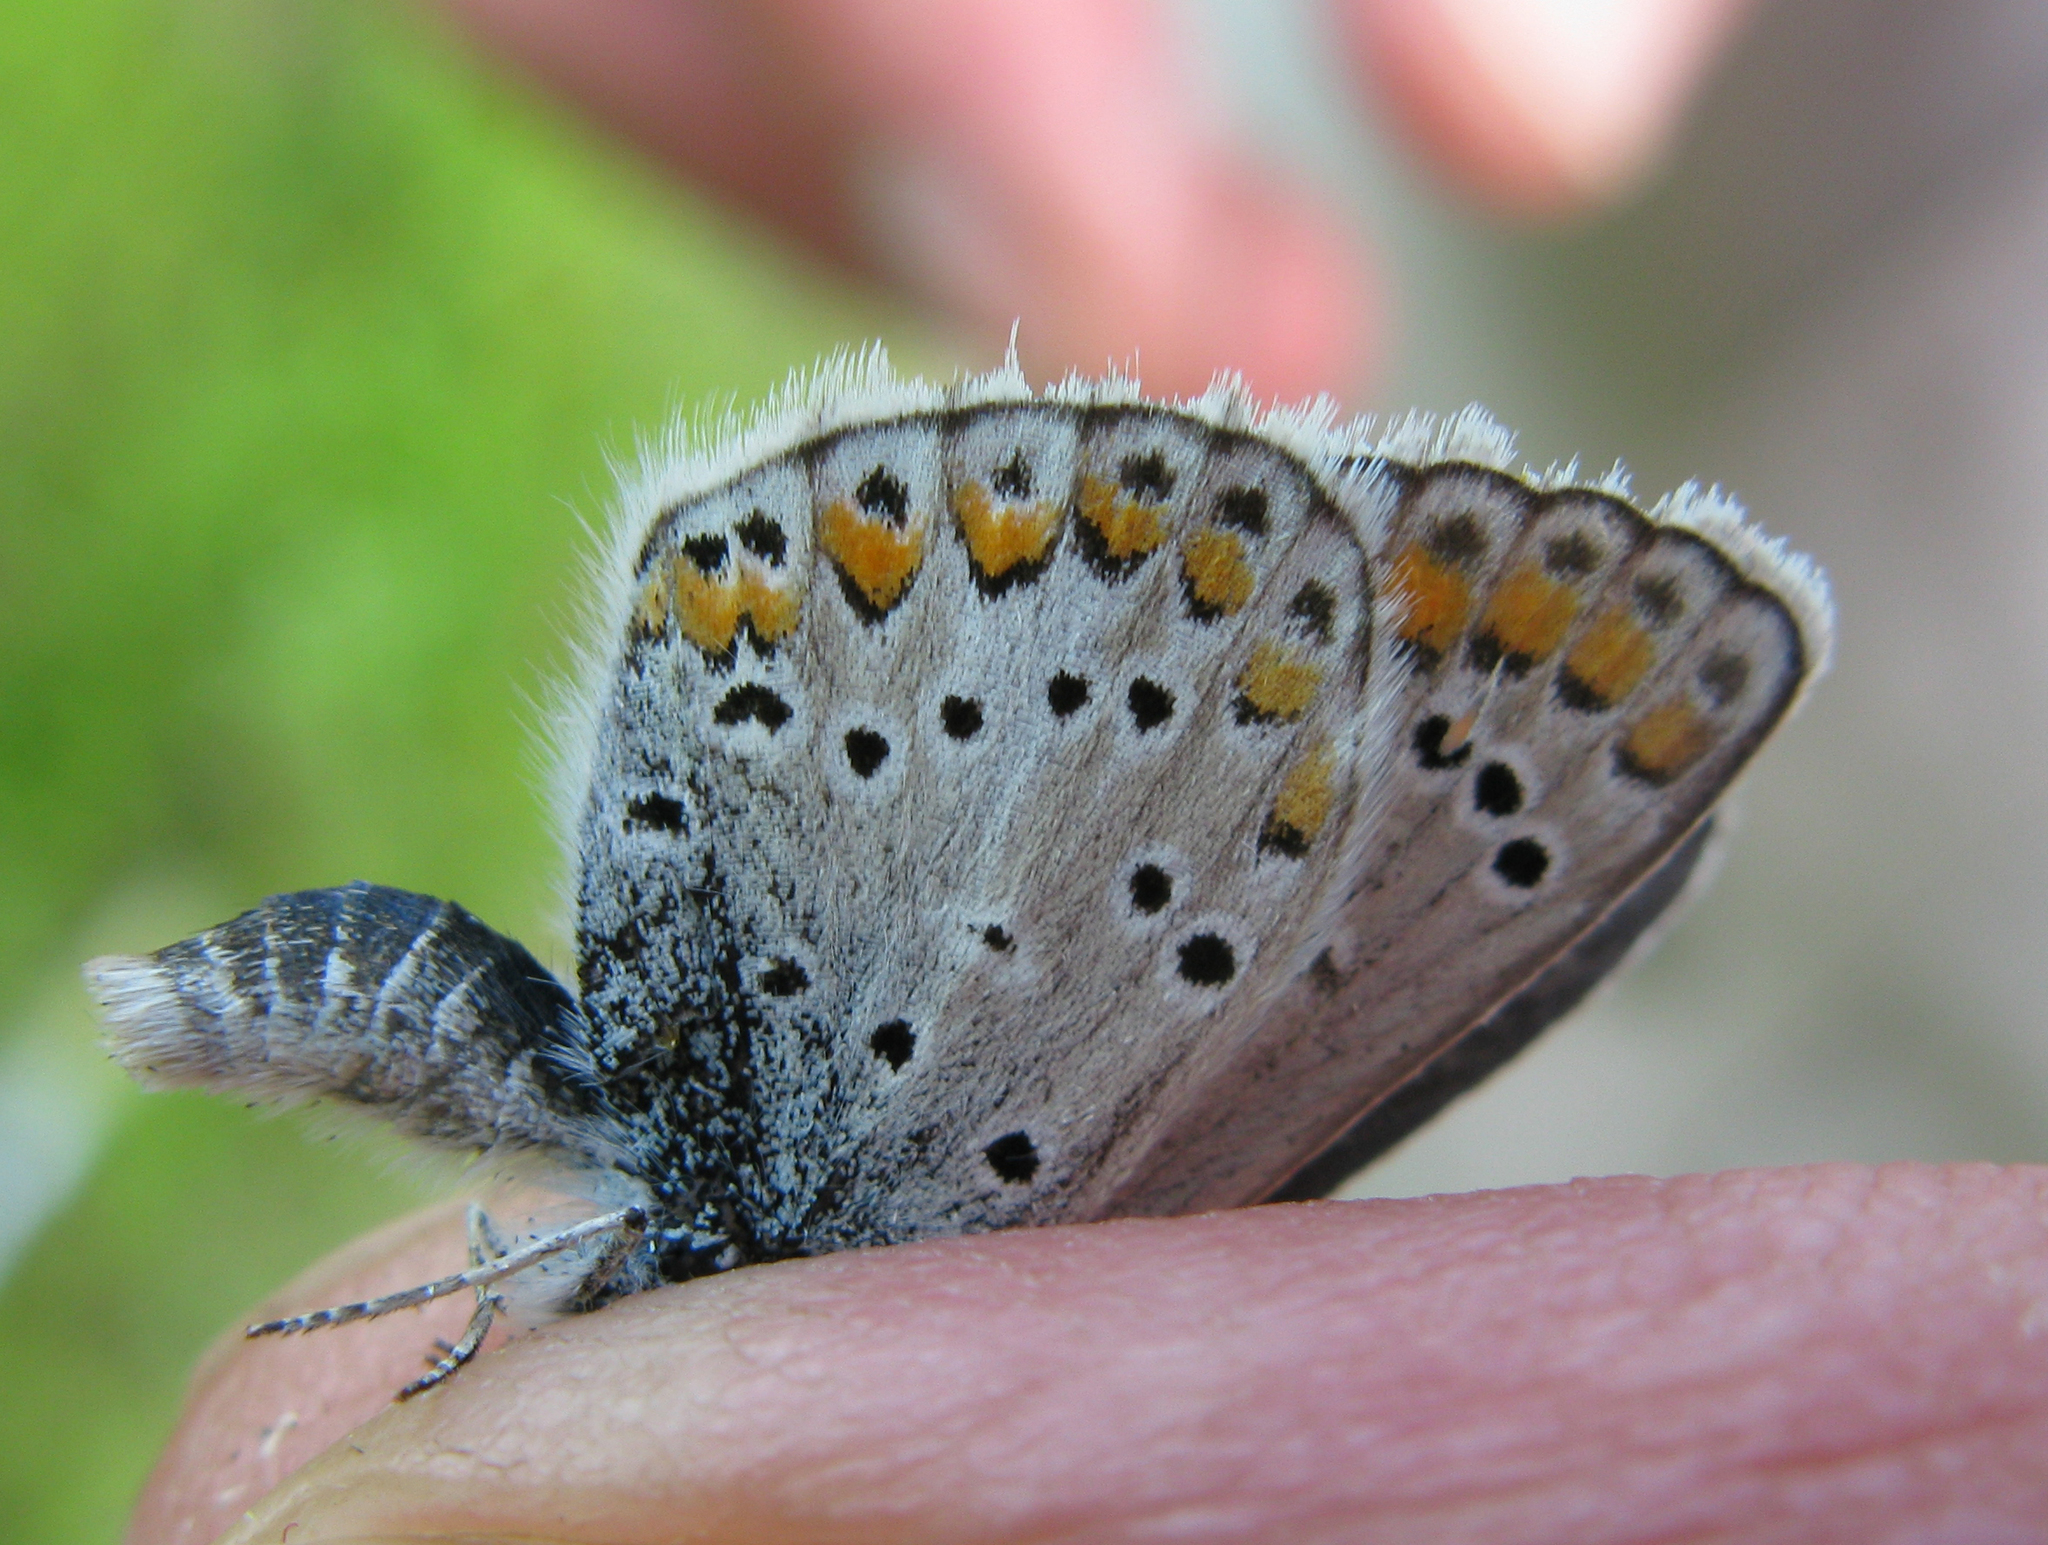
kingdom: Animalia
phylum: Arthropoda
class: Insecta
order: Lepidoptera
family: Lycaenidae
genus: Aricia
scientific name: Aricia artaxerxes
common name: Northern brown argus
